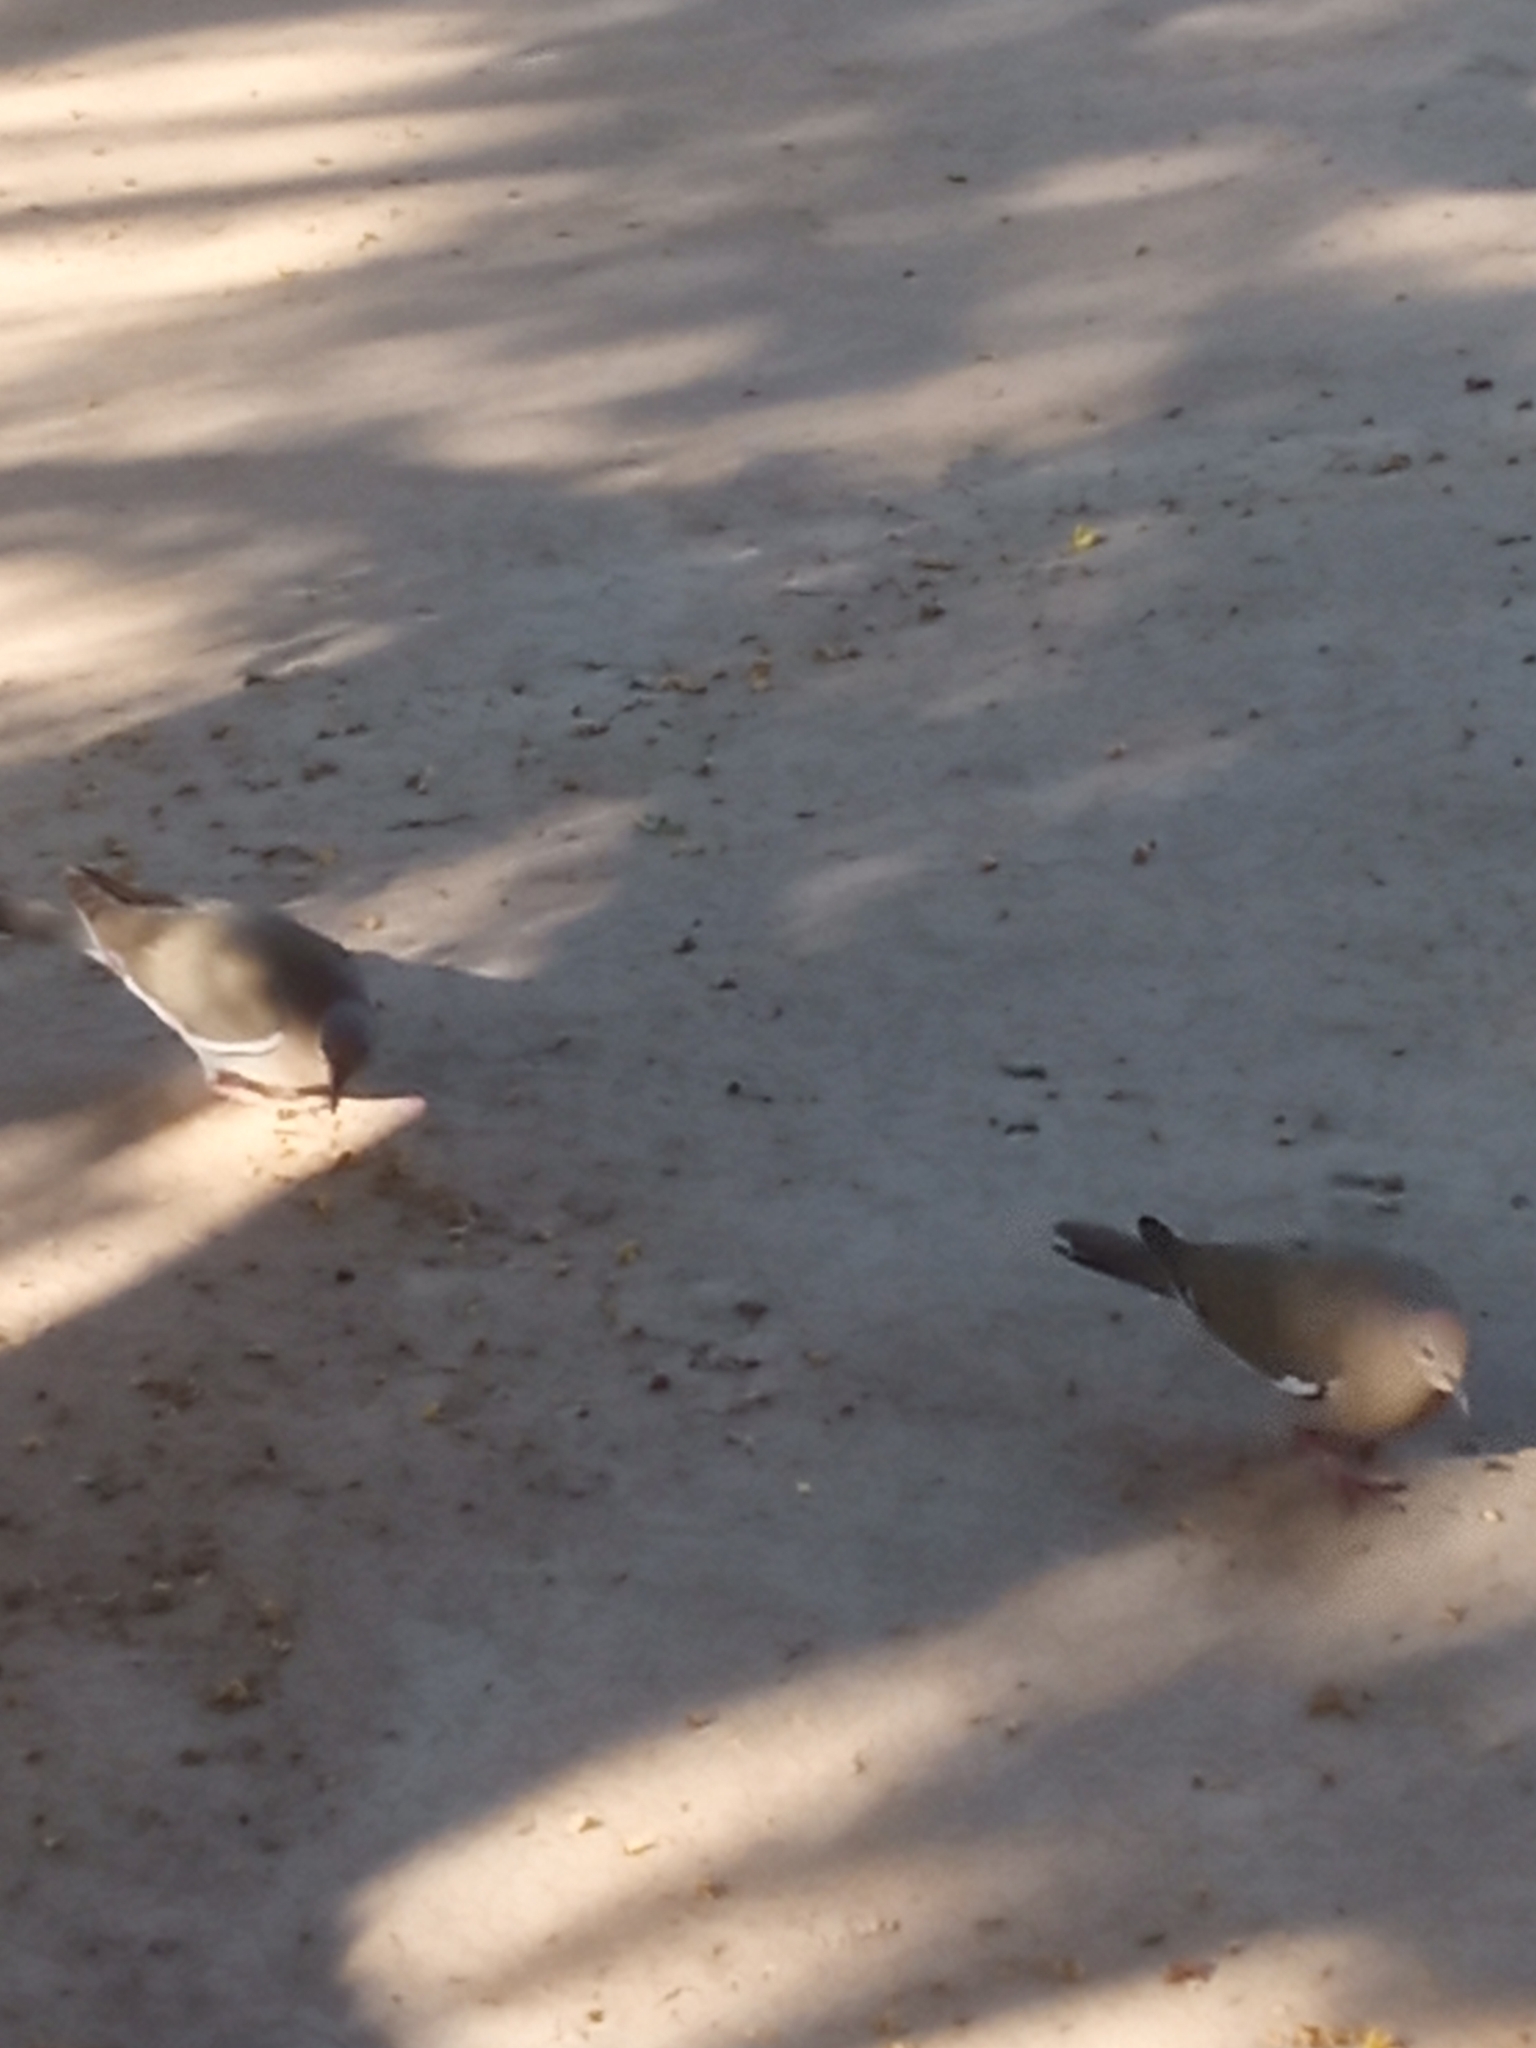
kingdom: Animalia
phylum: Chordata
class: Aves
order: Columbiformes
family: Columbidae
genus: Zenaida
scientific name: Zenaida asiatica
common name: White-winged dove
